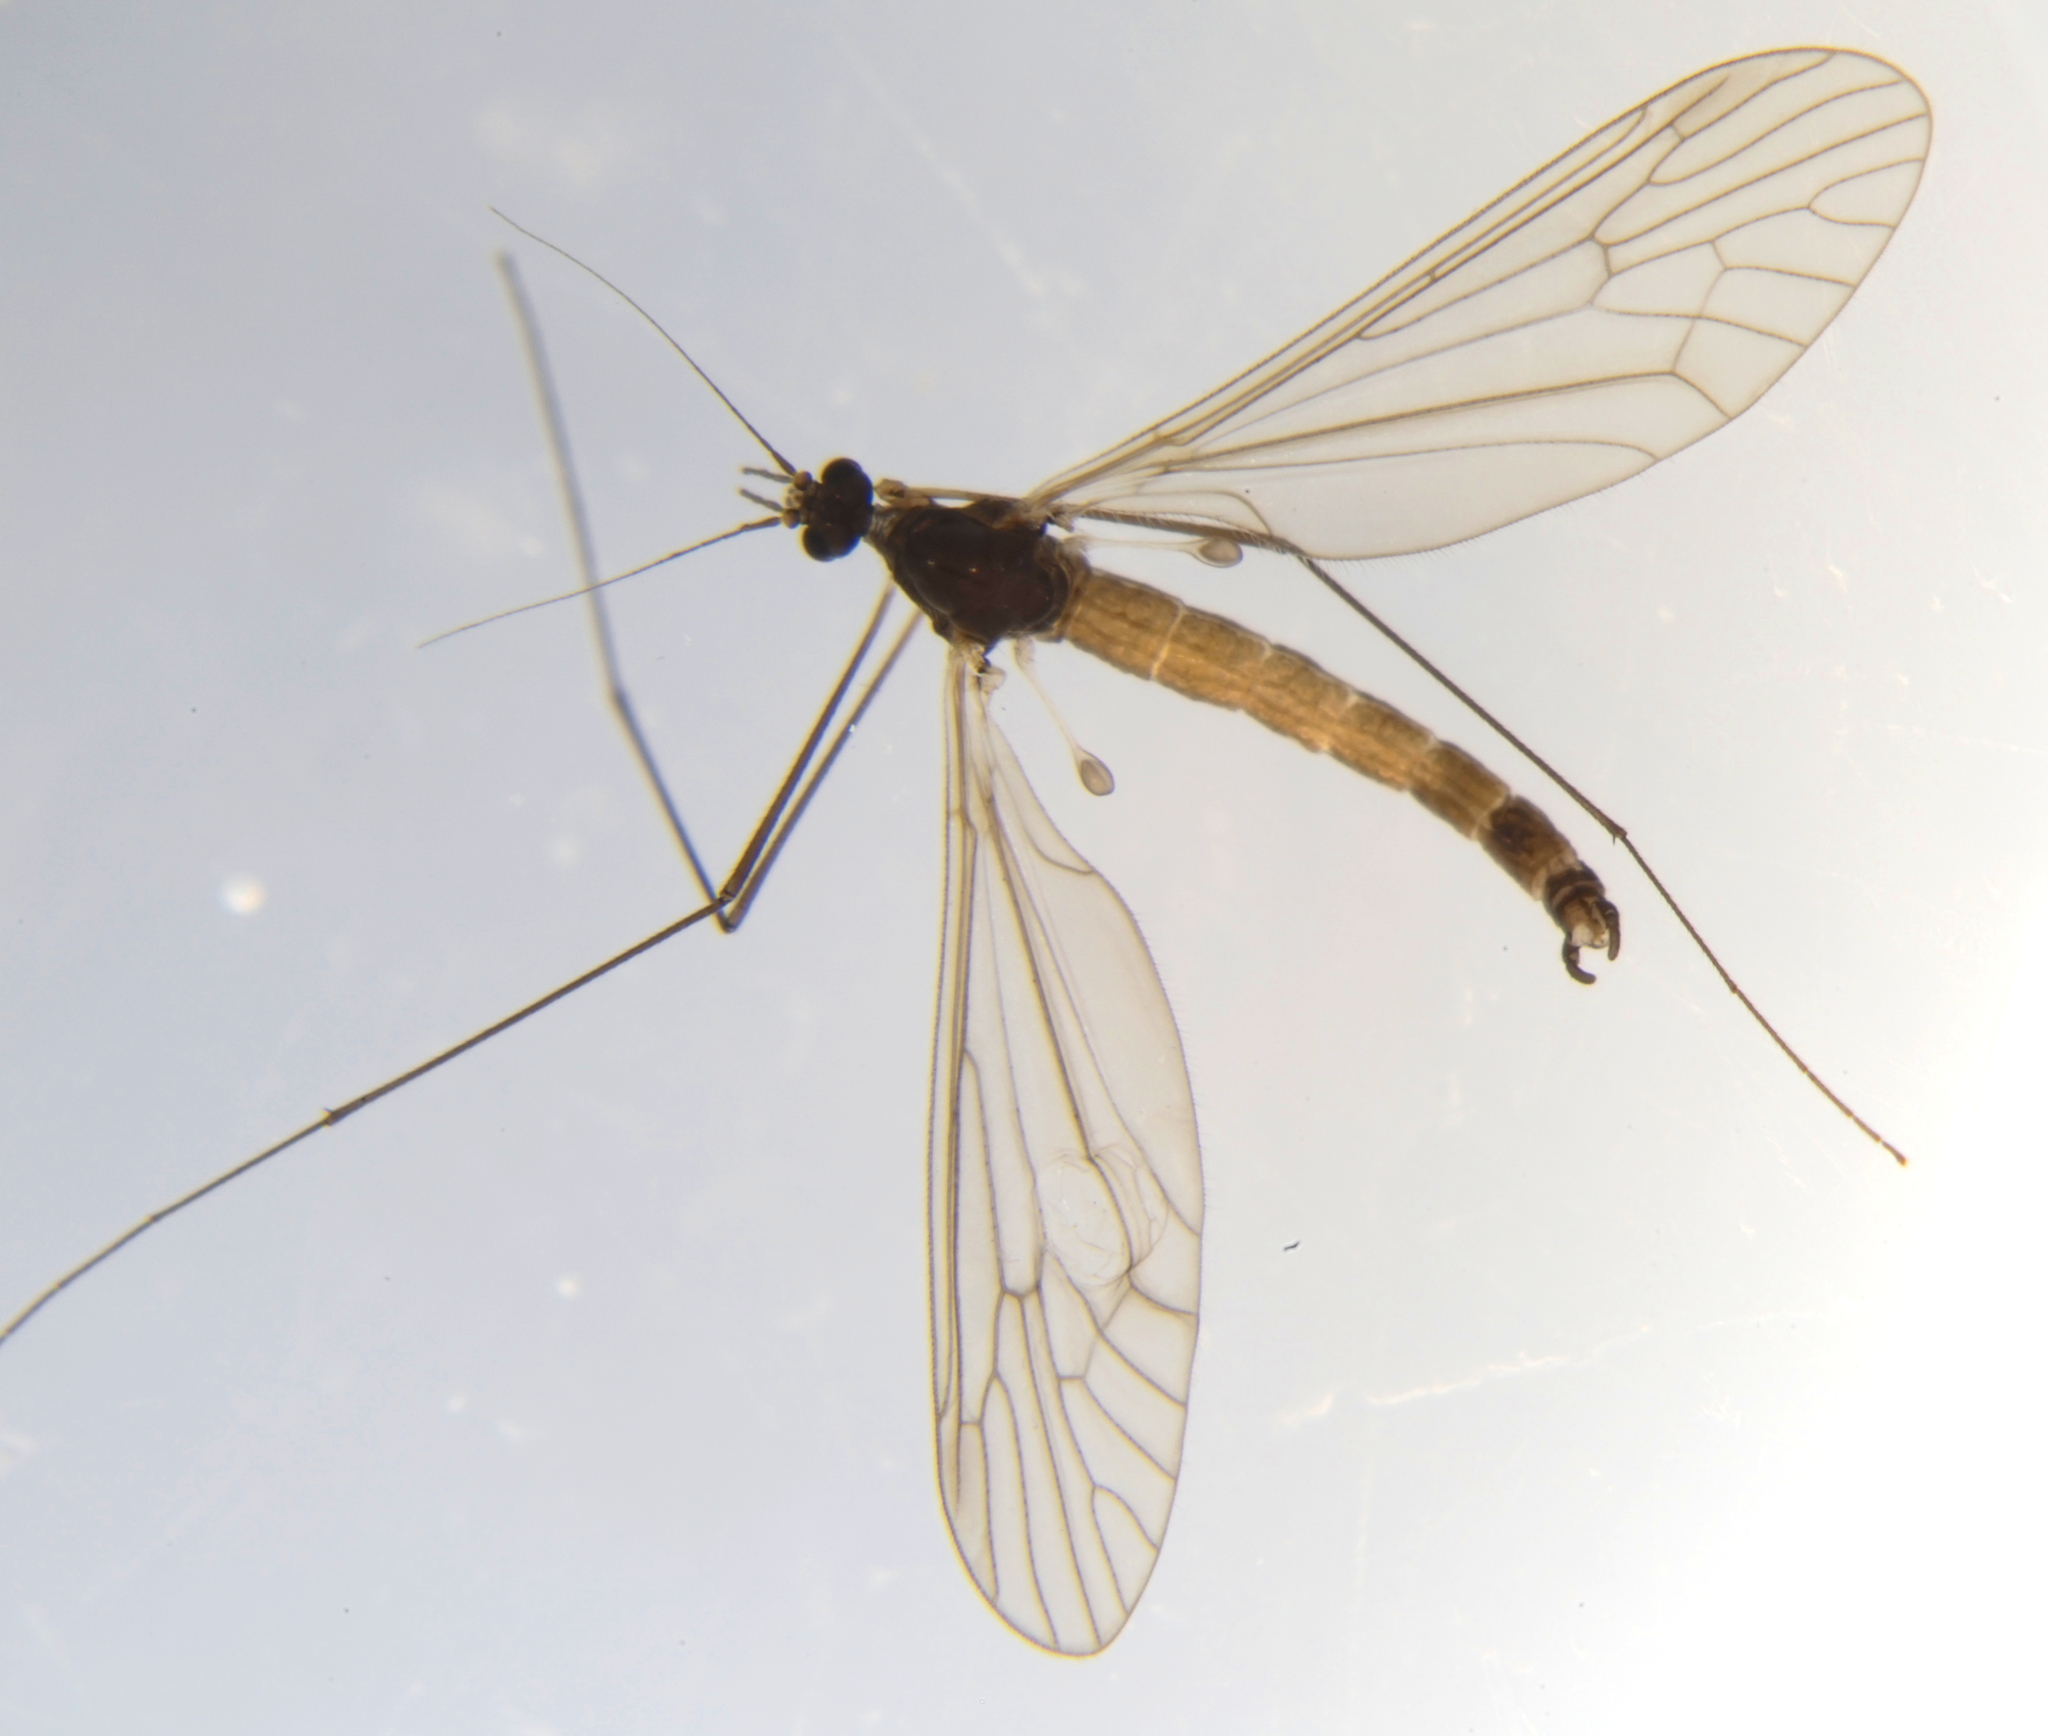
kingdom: Animalia
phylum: Arthropoda
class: Insecta
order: Diptera
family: Trichoceridae
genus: Trichocera
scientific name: Trichocera hiemalis
